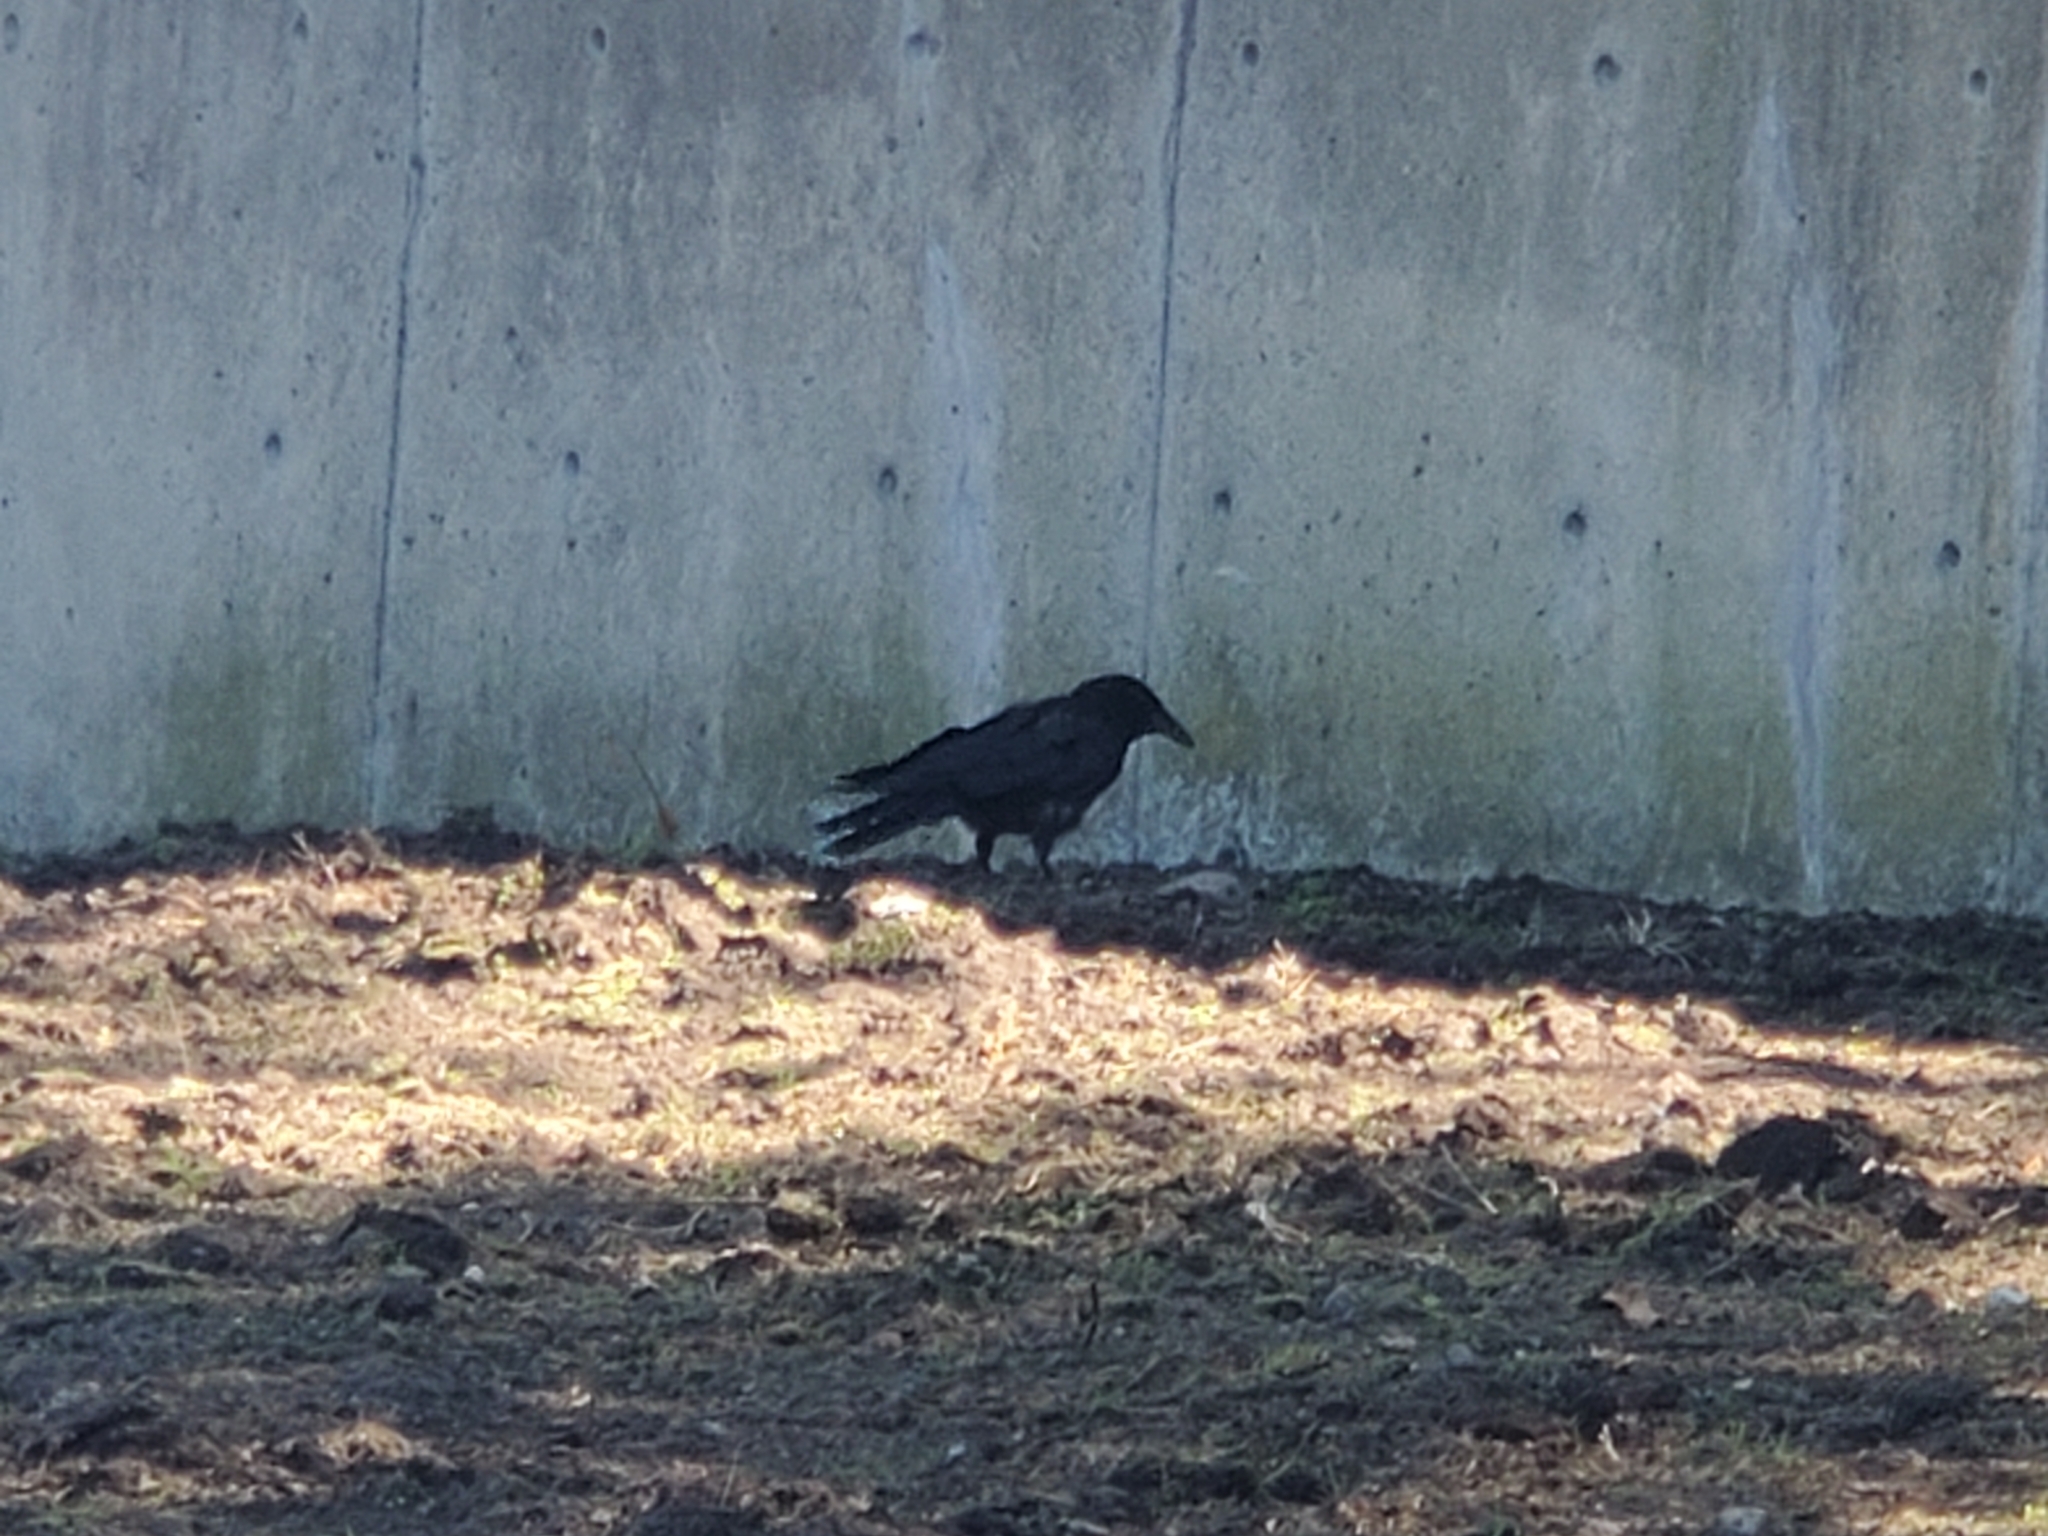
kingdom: Animalia
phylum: Chordata
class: Aves
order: Passeriformes
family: Corvidae
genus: Corvus
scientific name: Corvus brachyrhynchos
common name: American crow
